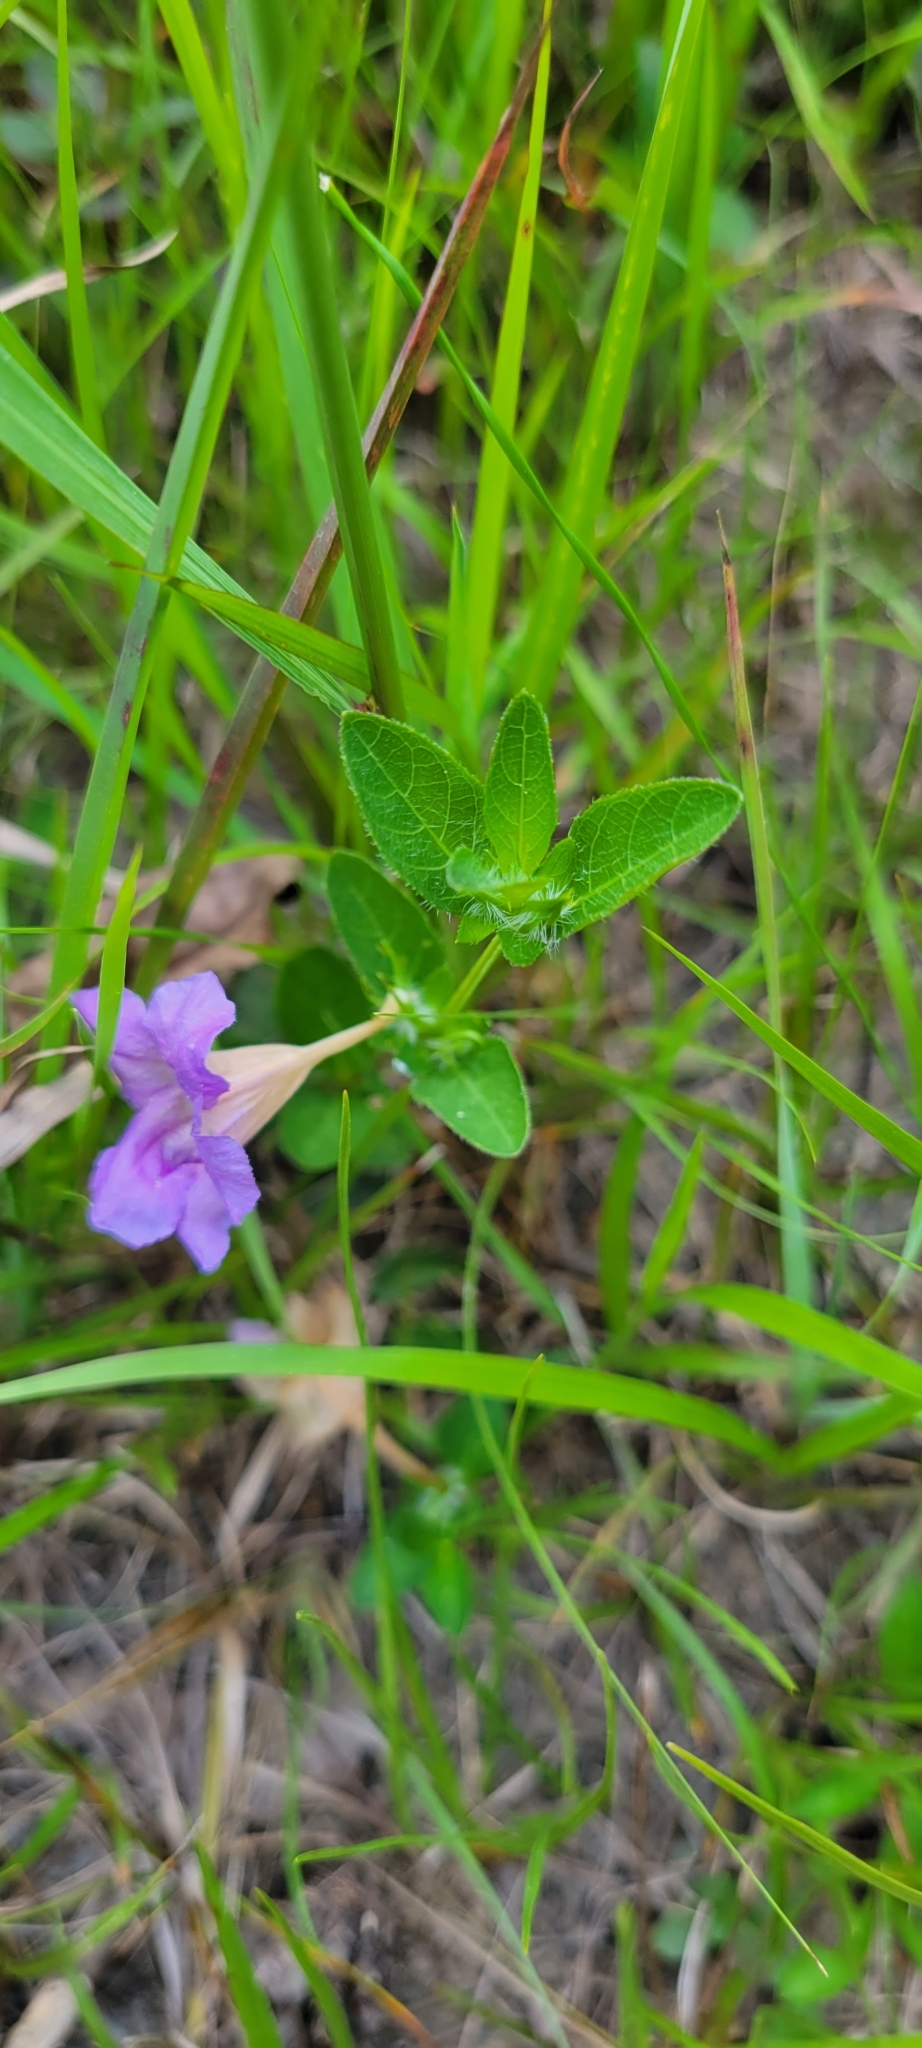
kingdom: Plantae
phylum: Tracheophyta
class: Magnoliopsida
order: Lamiales
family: Acanthaceae
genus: Ruellia
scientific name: Ruellia humilis
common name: Fringe-leaf ruellia
